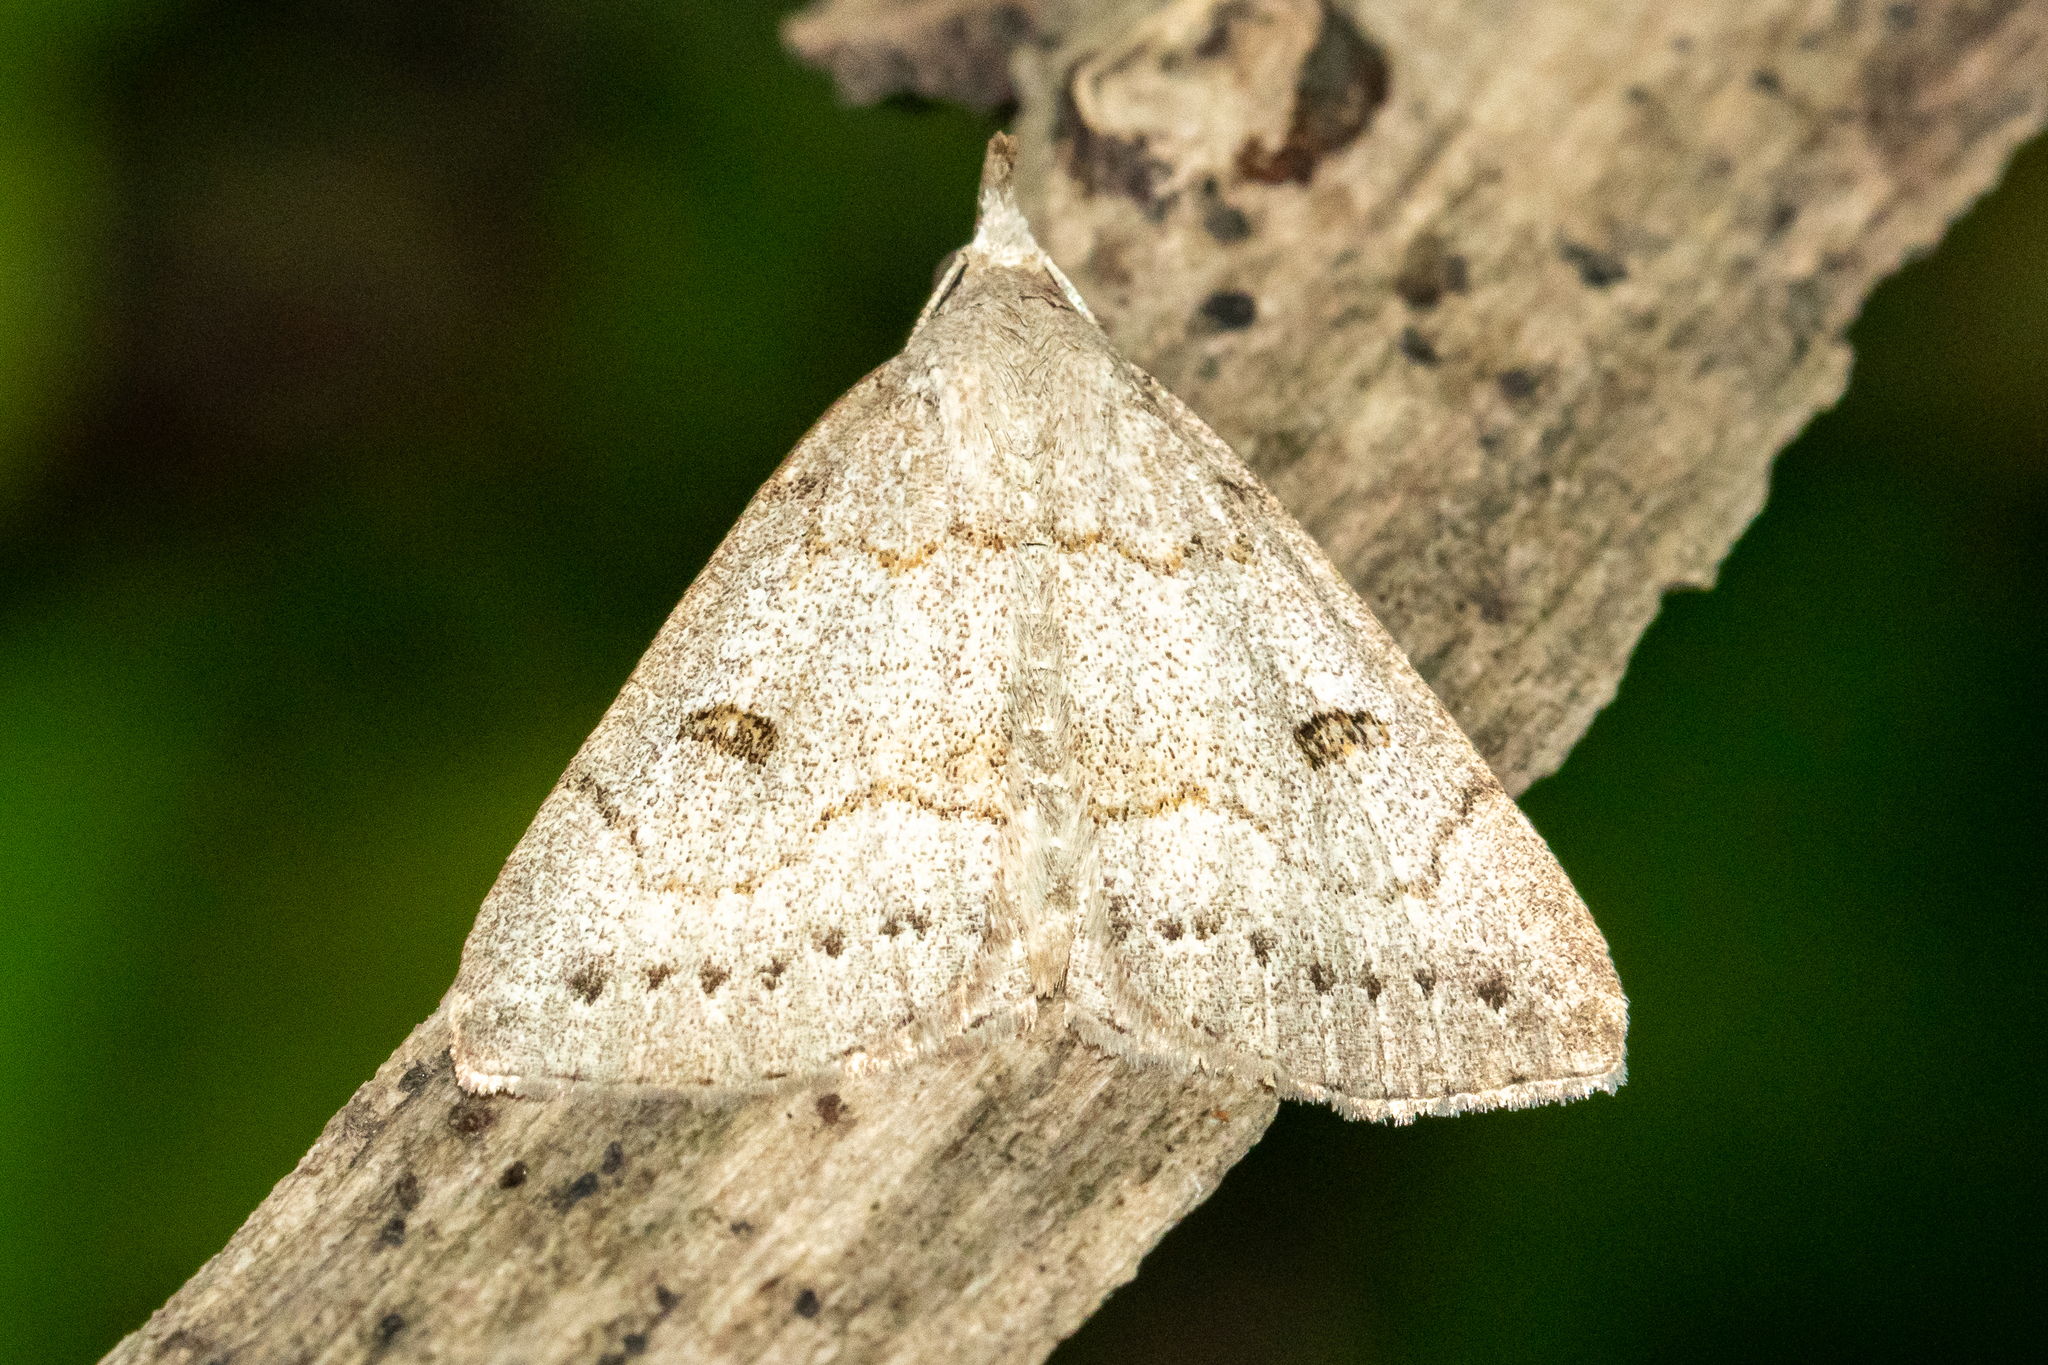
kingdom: Animalia
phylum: Arthropoda
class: Insecta
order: Lepidoptera
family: Erebidae
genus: Macrochilo
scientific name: Macrochilo morbidalis
